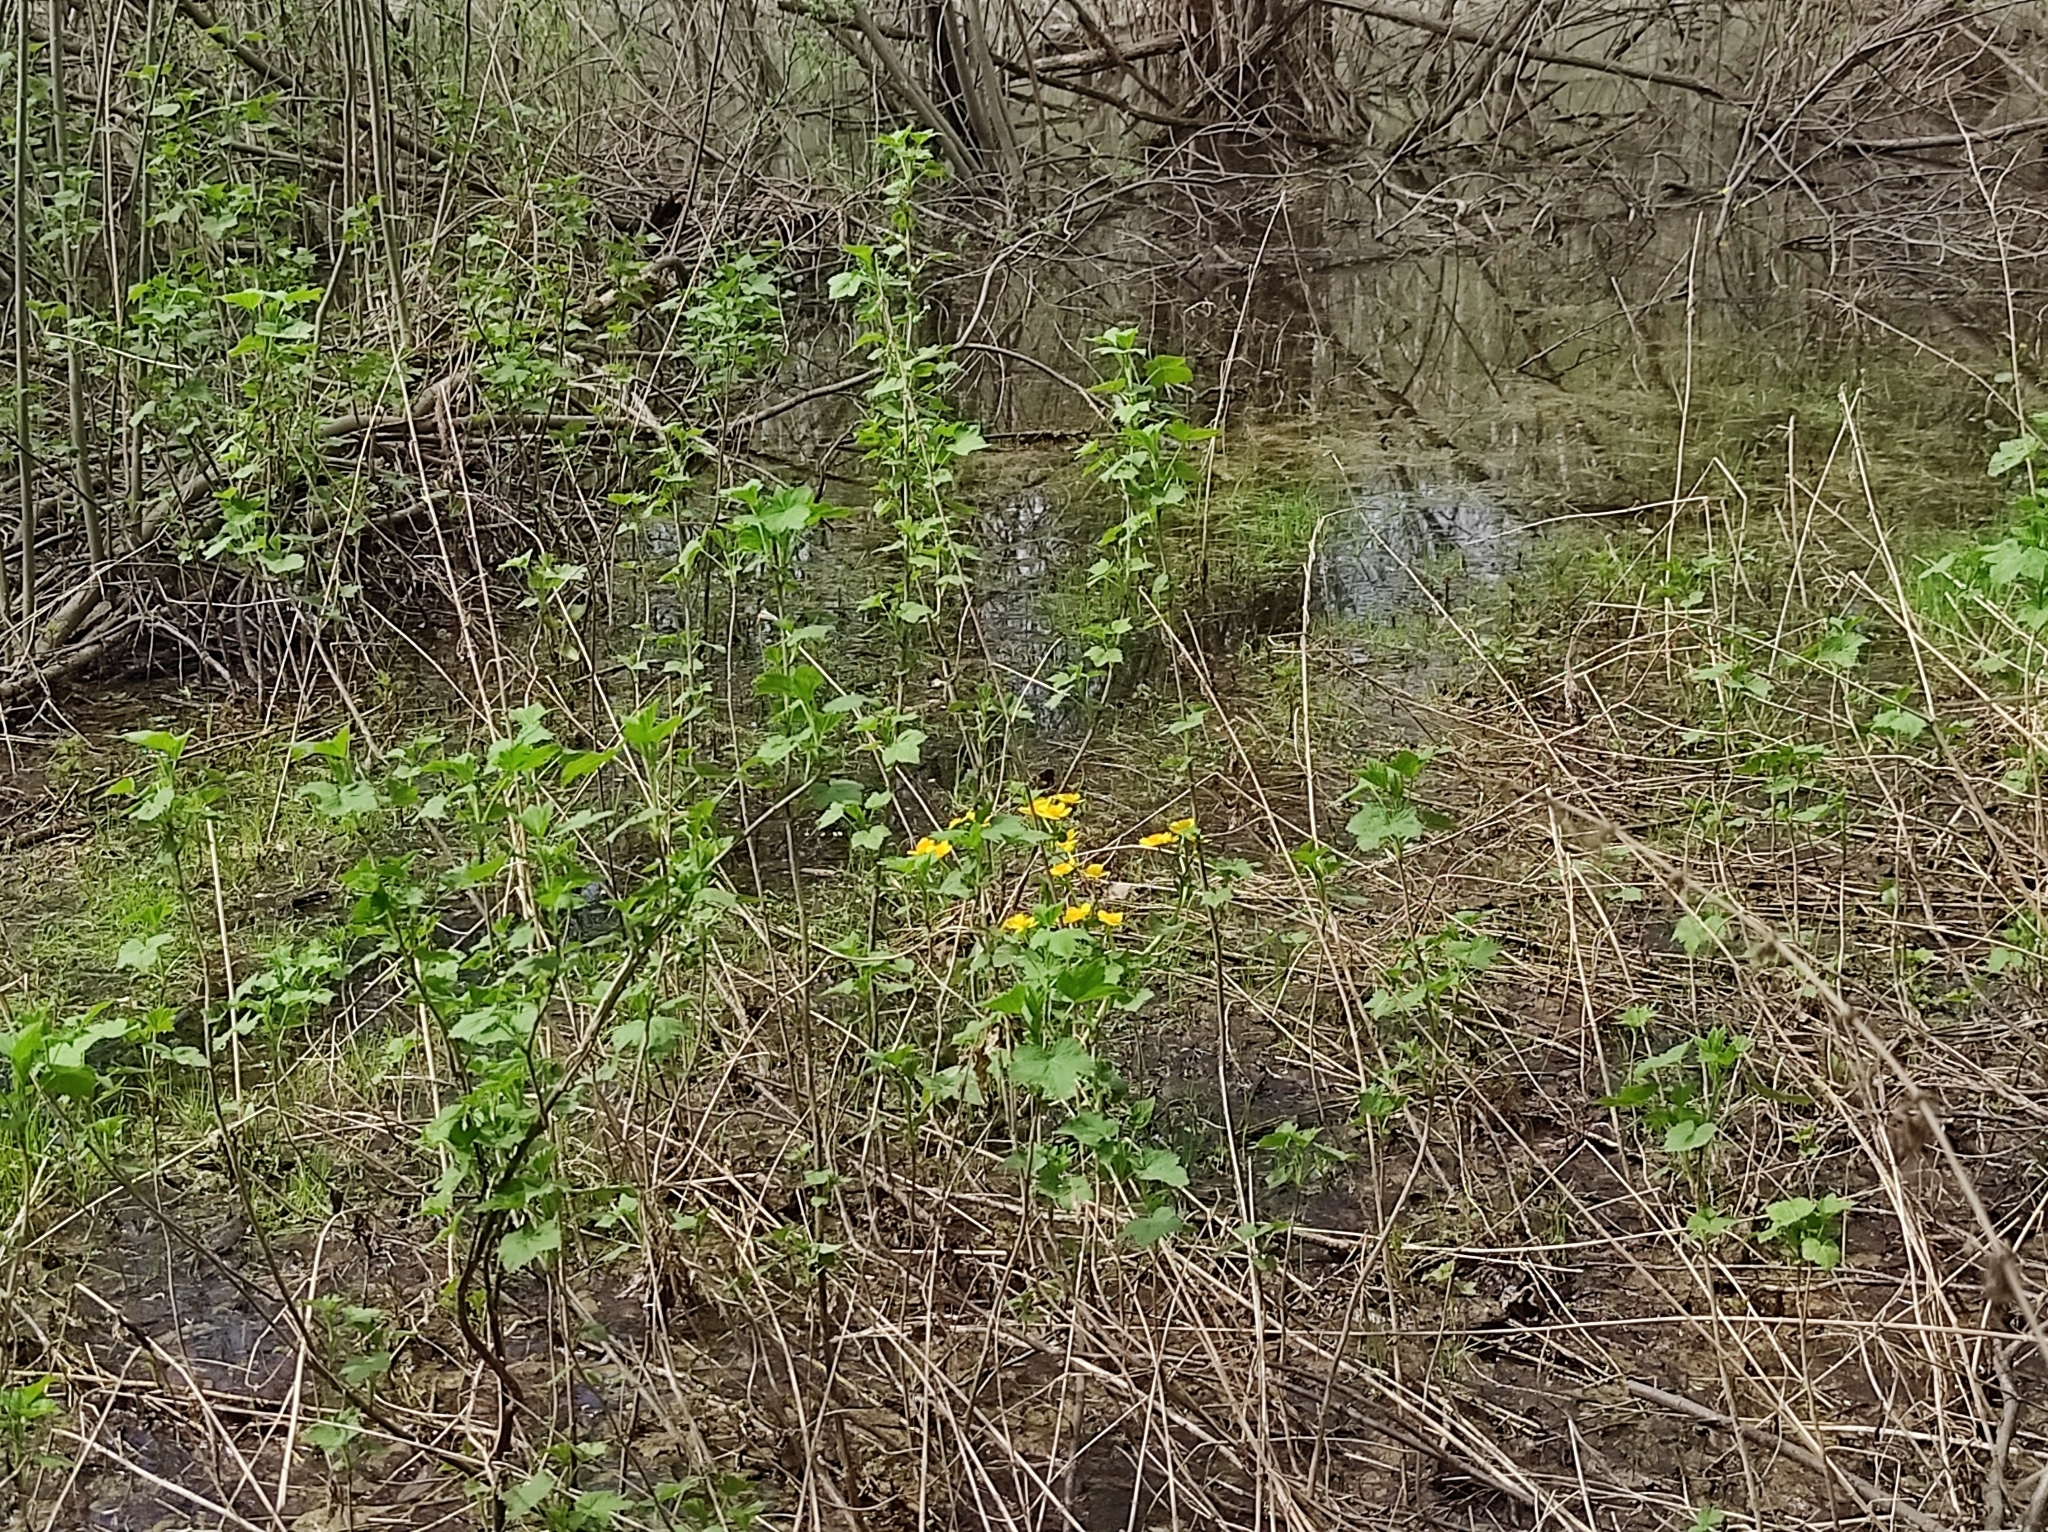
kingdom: Plantae
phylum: Tracheophyta
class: Magnoliopsida
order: Ranunculales
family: Ranunculaceae
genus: Caltha
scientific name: Caltha palustris
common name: Marsh marigold
